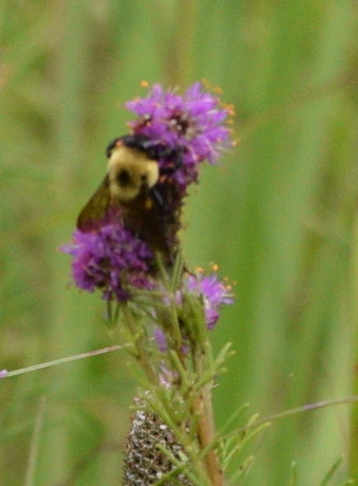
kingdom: Animalia
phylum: Arthropoda
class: Insecta
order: Hymenoptera
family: Apidae
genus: Bombus
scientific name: Bombus griseocollis
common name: Brown-belted bumble bee
